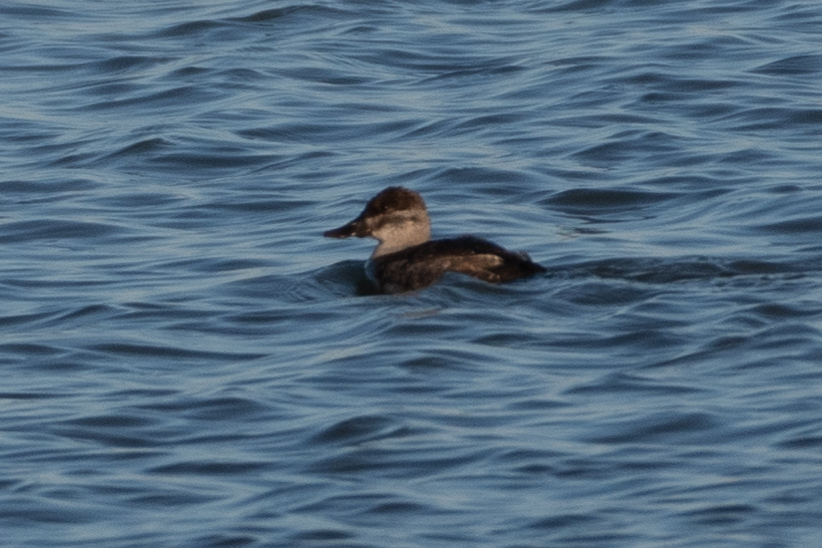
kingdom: Animalia
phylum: Chordata
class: Aves
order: Anseriformes
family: Anatidae
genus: Oxyura
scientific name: Oxyura jamaicensis
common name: Ruddy duck
